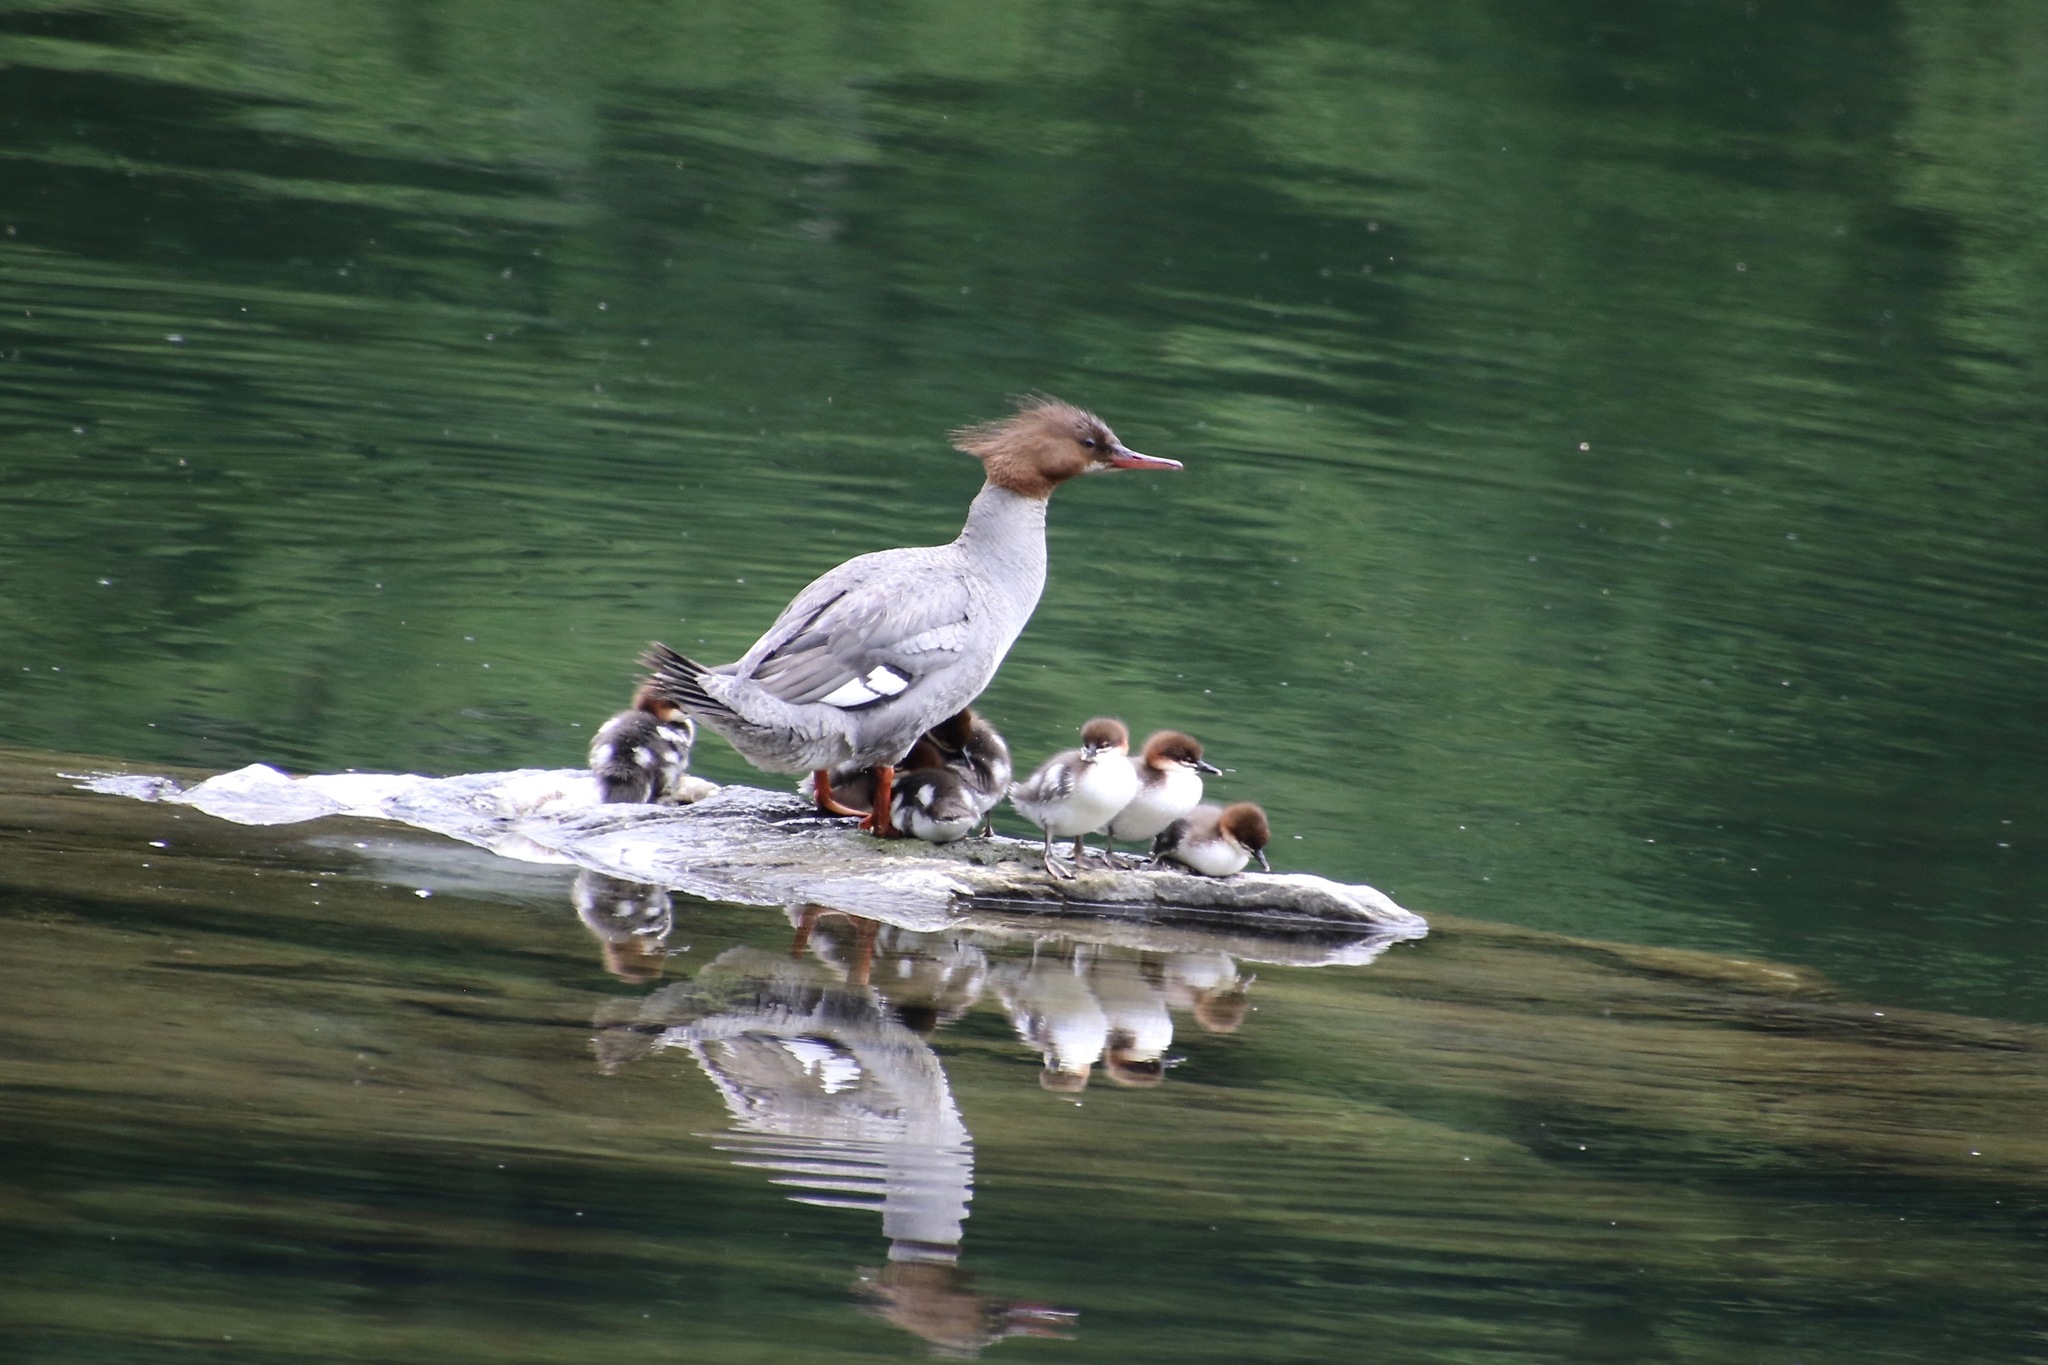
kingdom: Animalia
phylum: Chordata
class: Aves
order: Anseriformes
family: Anatidae
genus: Mergus
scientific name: Mergus merganser
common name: Common merganser
